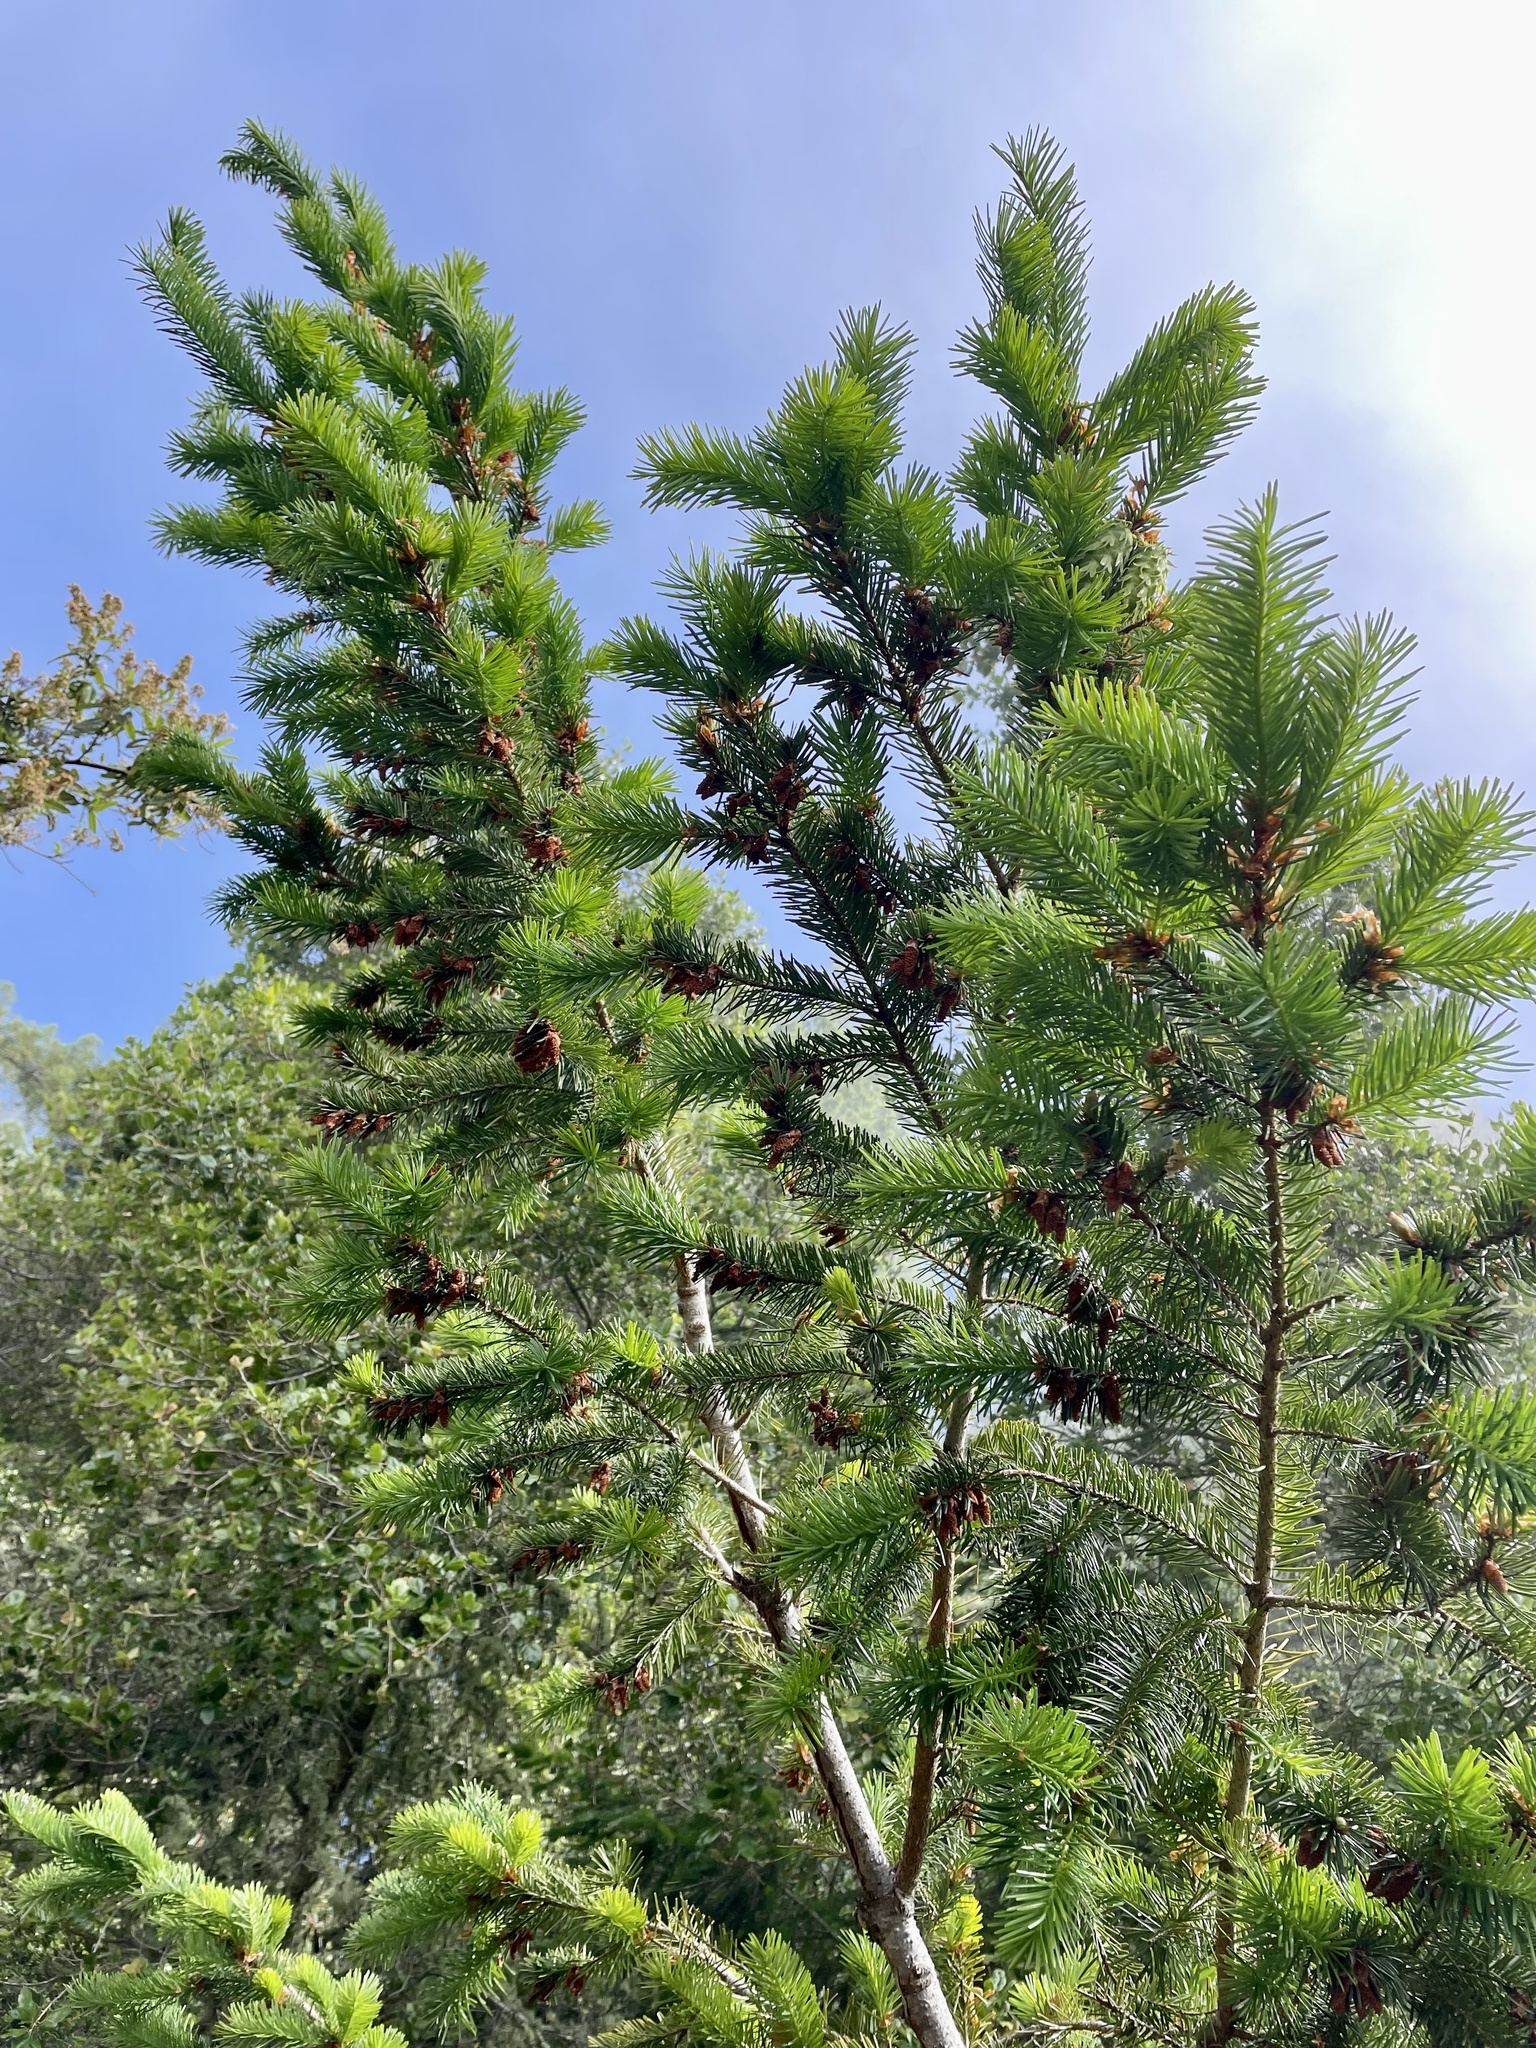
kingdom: Plantae
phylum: Tracheophyta
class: Pinopsida
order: Pinales
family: Pinaceae
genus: Pseudotsuga
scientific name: Pseudotsuga menziesii
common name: Douglas fir
